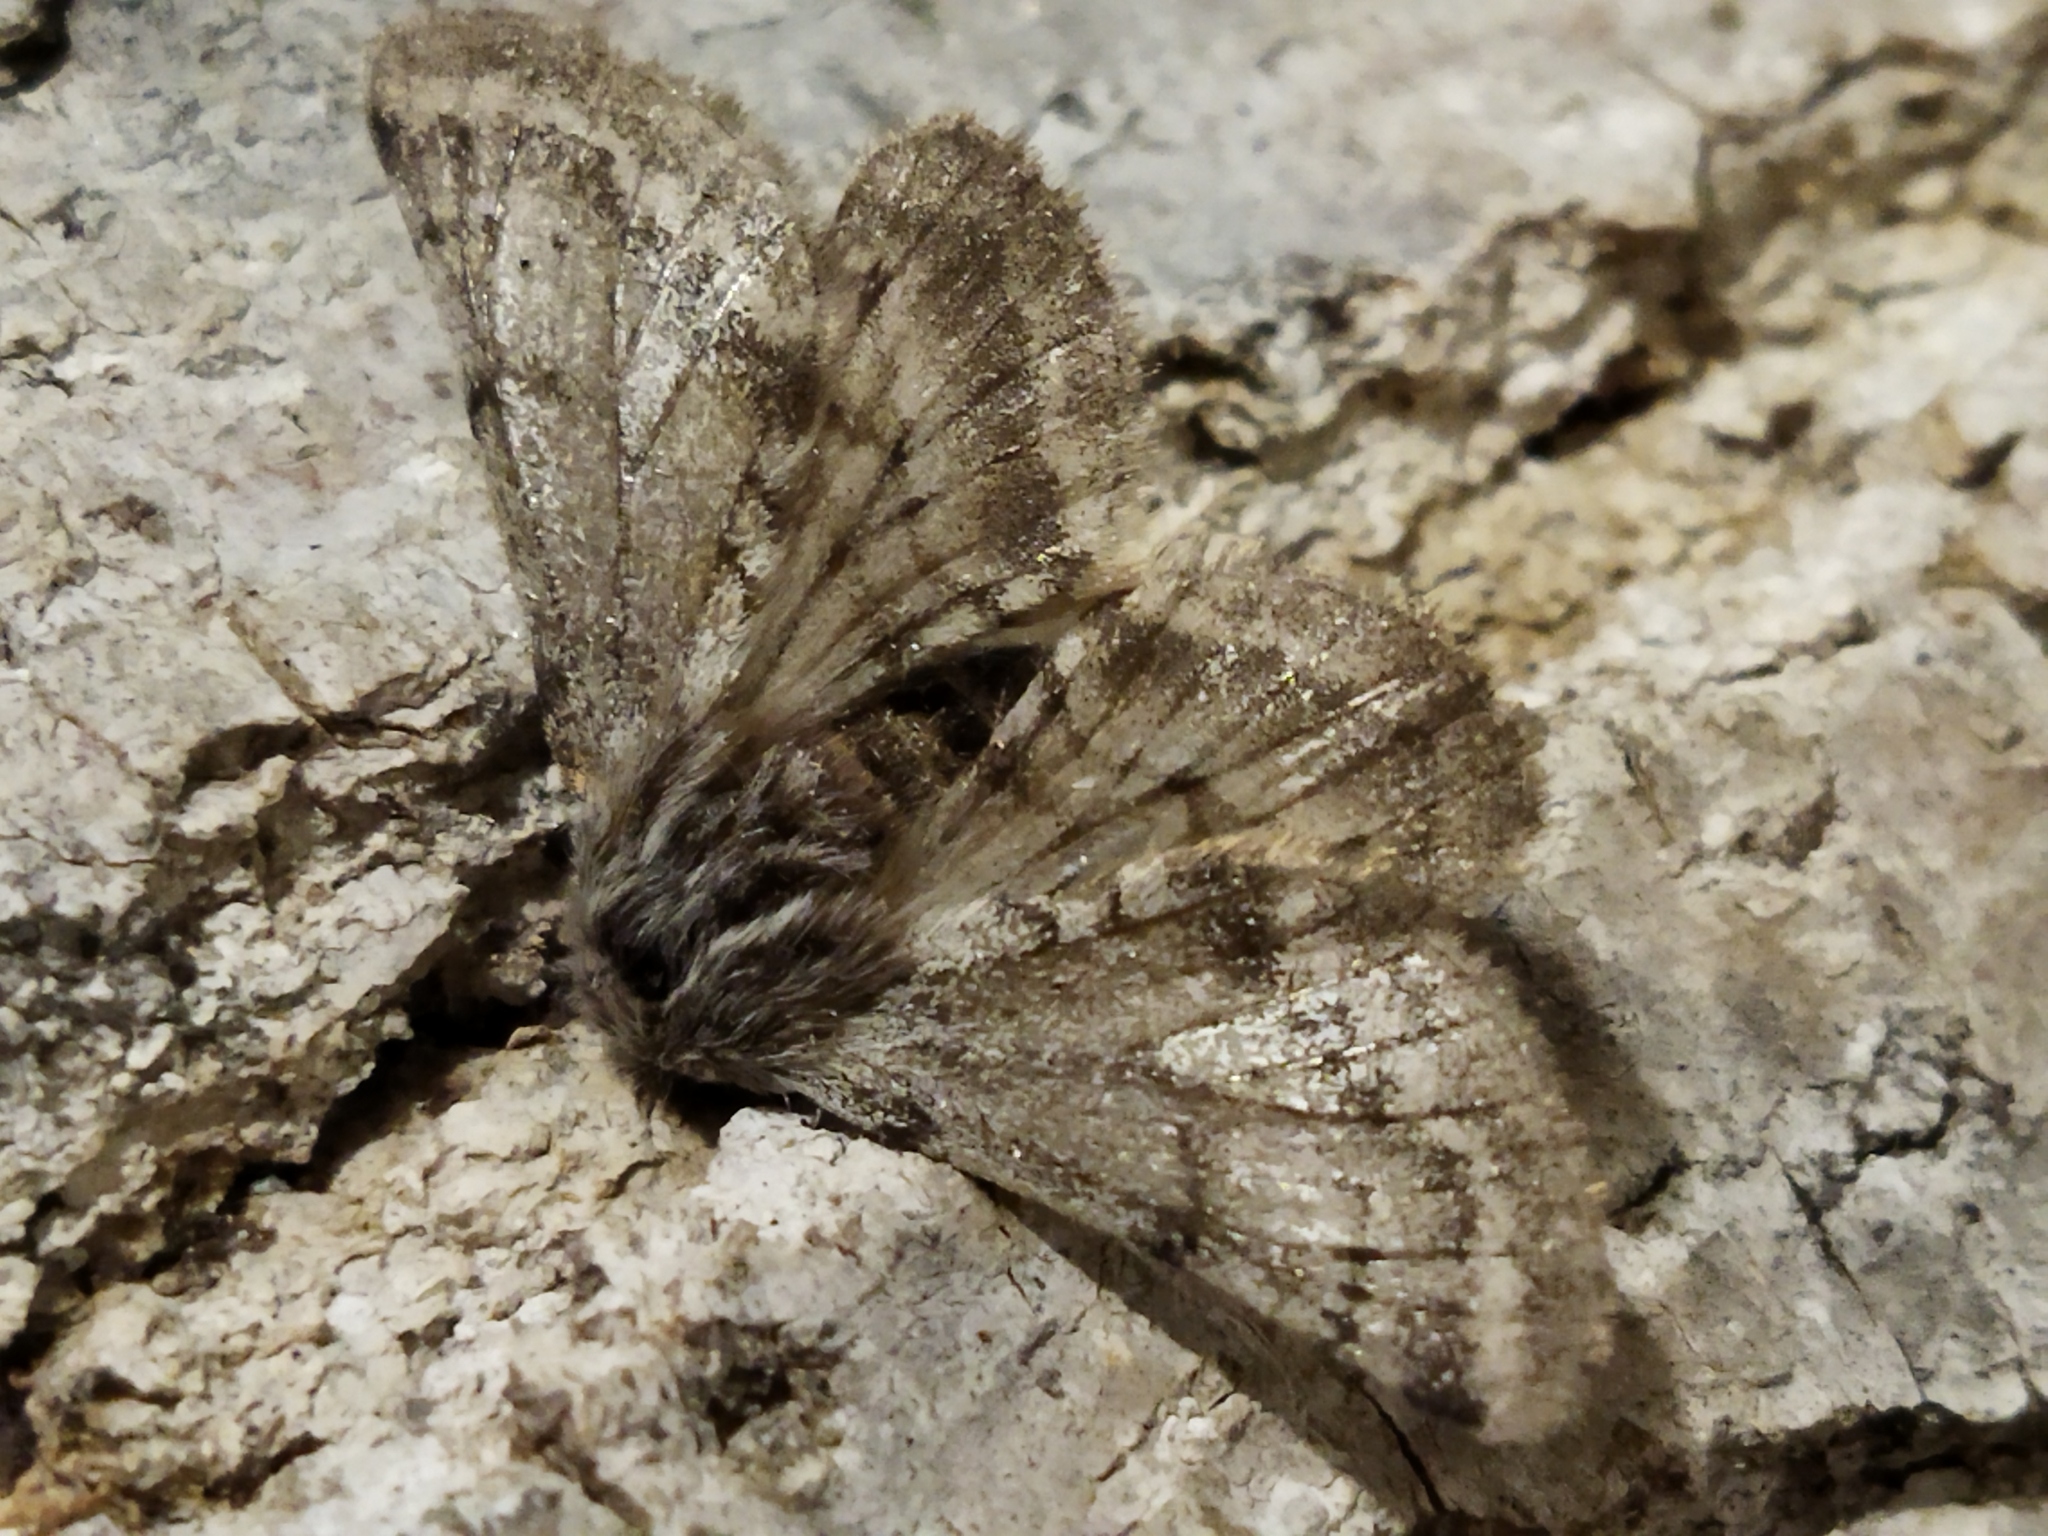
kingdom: Animalia
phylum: Arthropoda
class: Insecta
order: Lepidoptera
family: Geometridae
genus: Lycia
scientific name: Lycia graecarius
